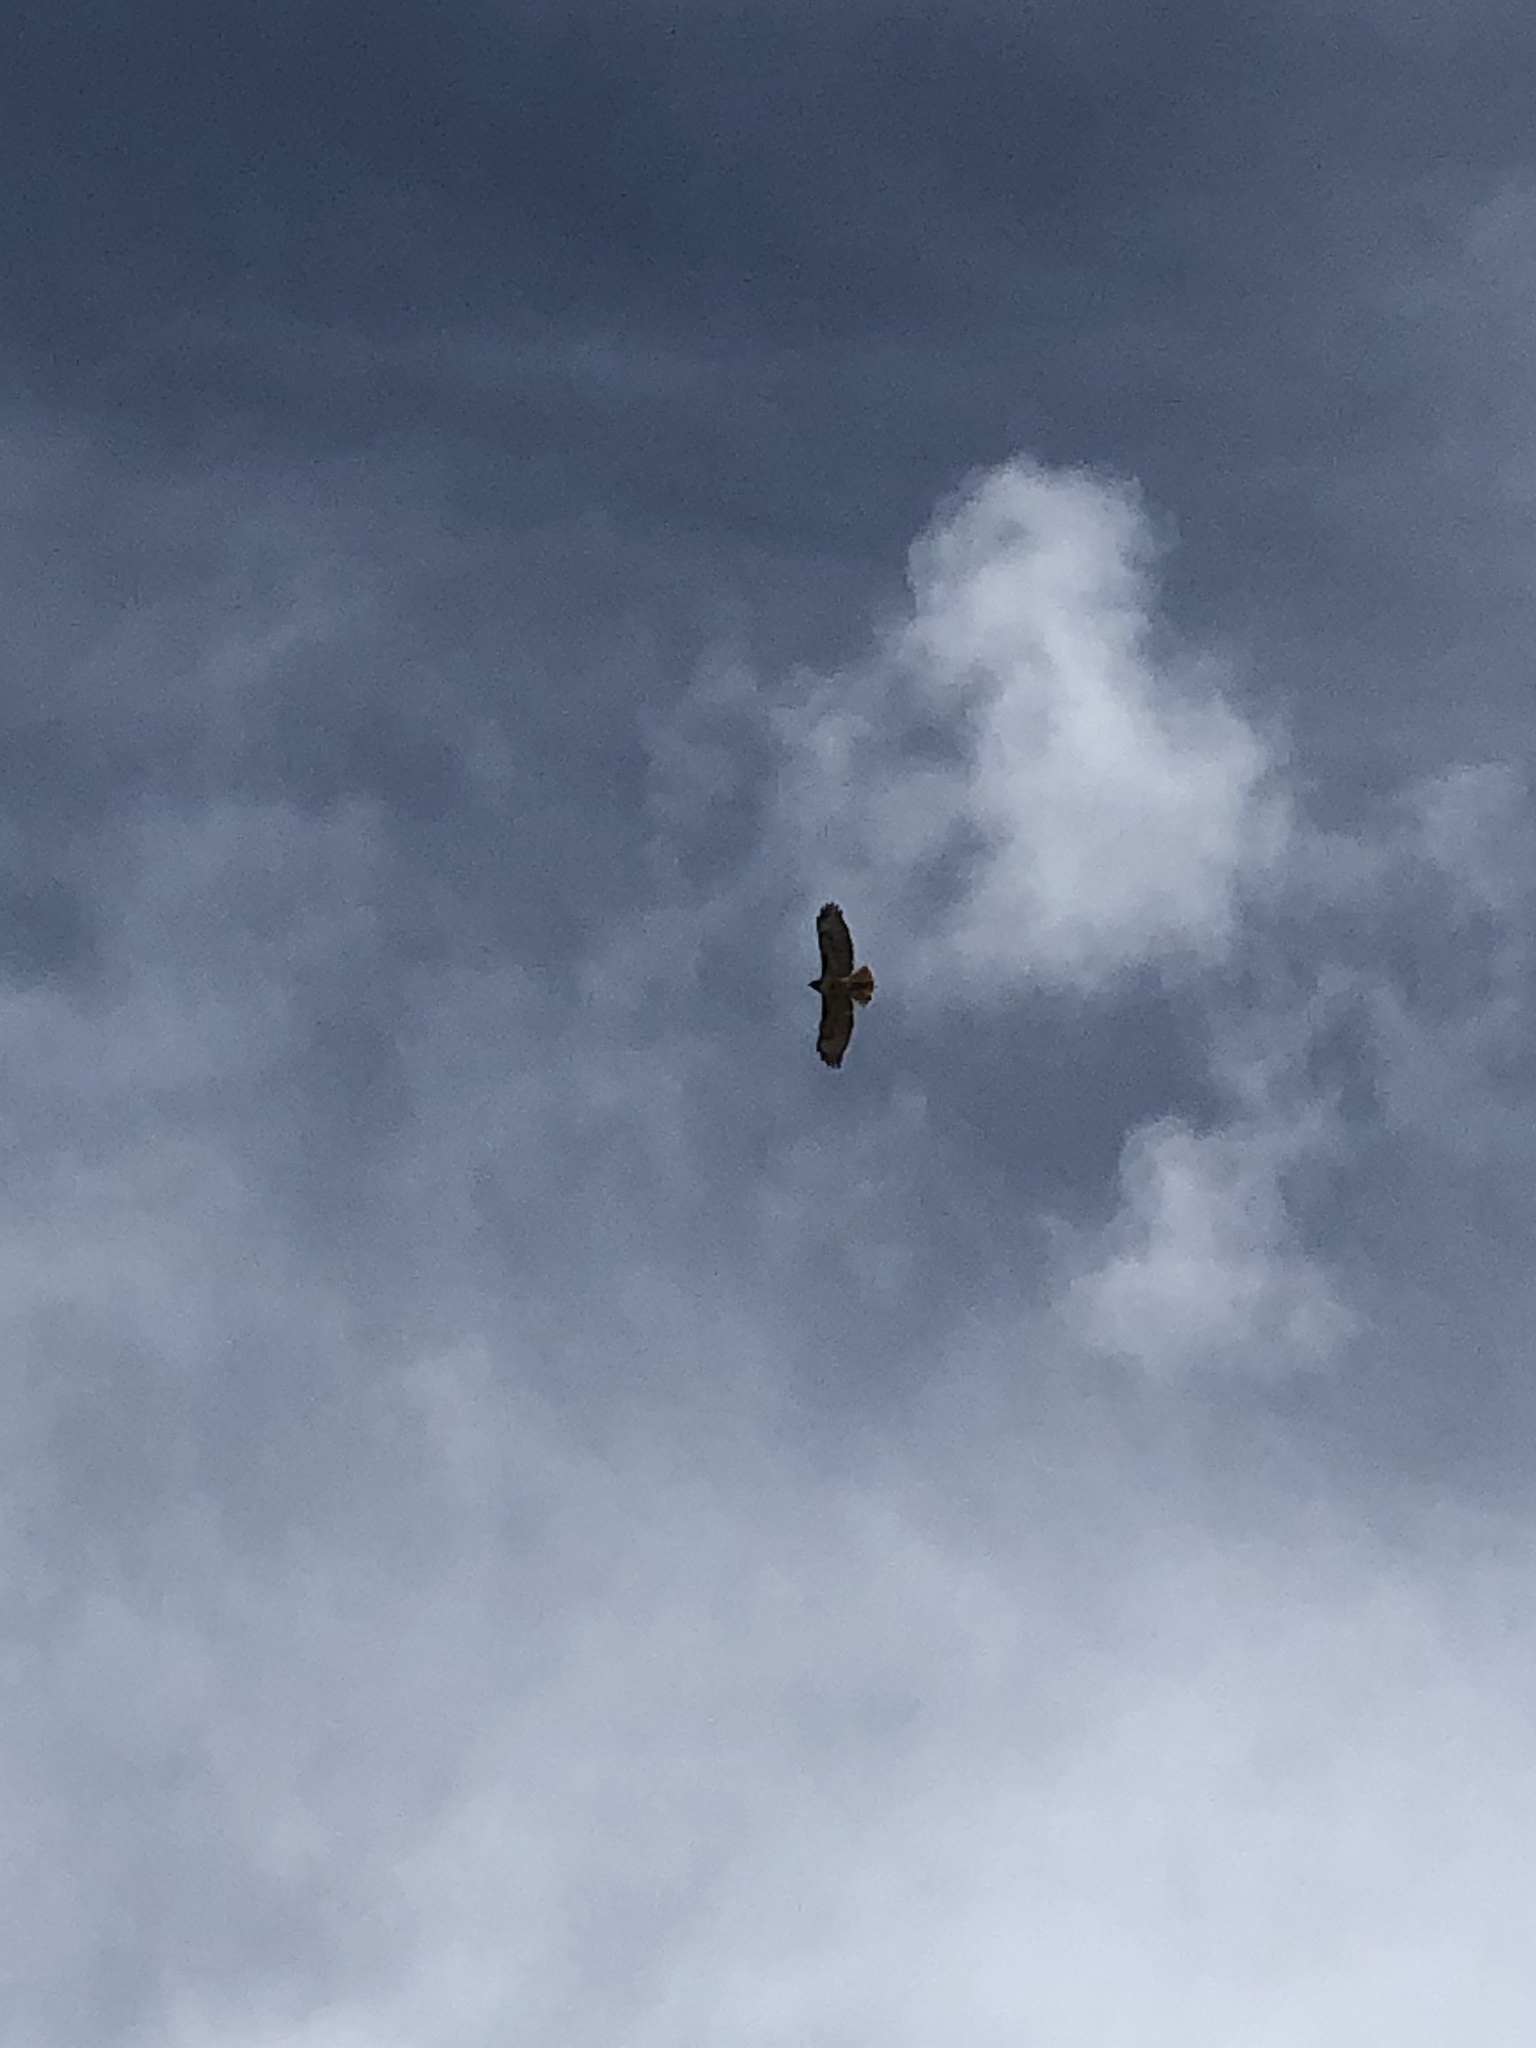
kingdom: Animalia
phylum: Chordata
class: Aves
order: Accipitriformes
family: Accipitridae
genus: Buteo
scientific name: Buteo jamaicensis
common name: Red-tailed hawk
